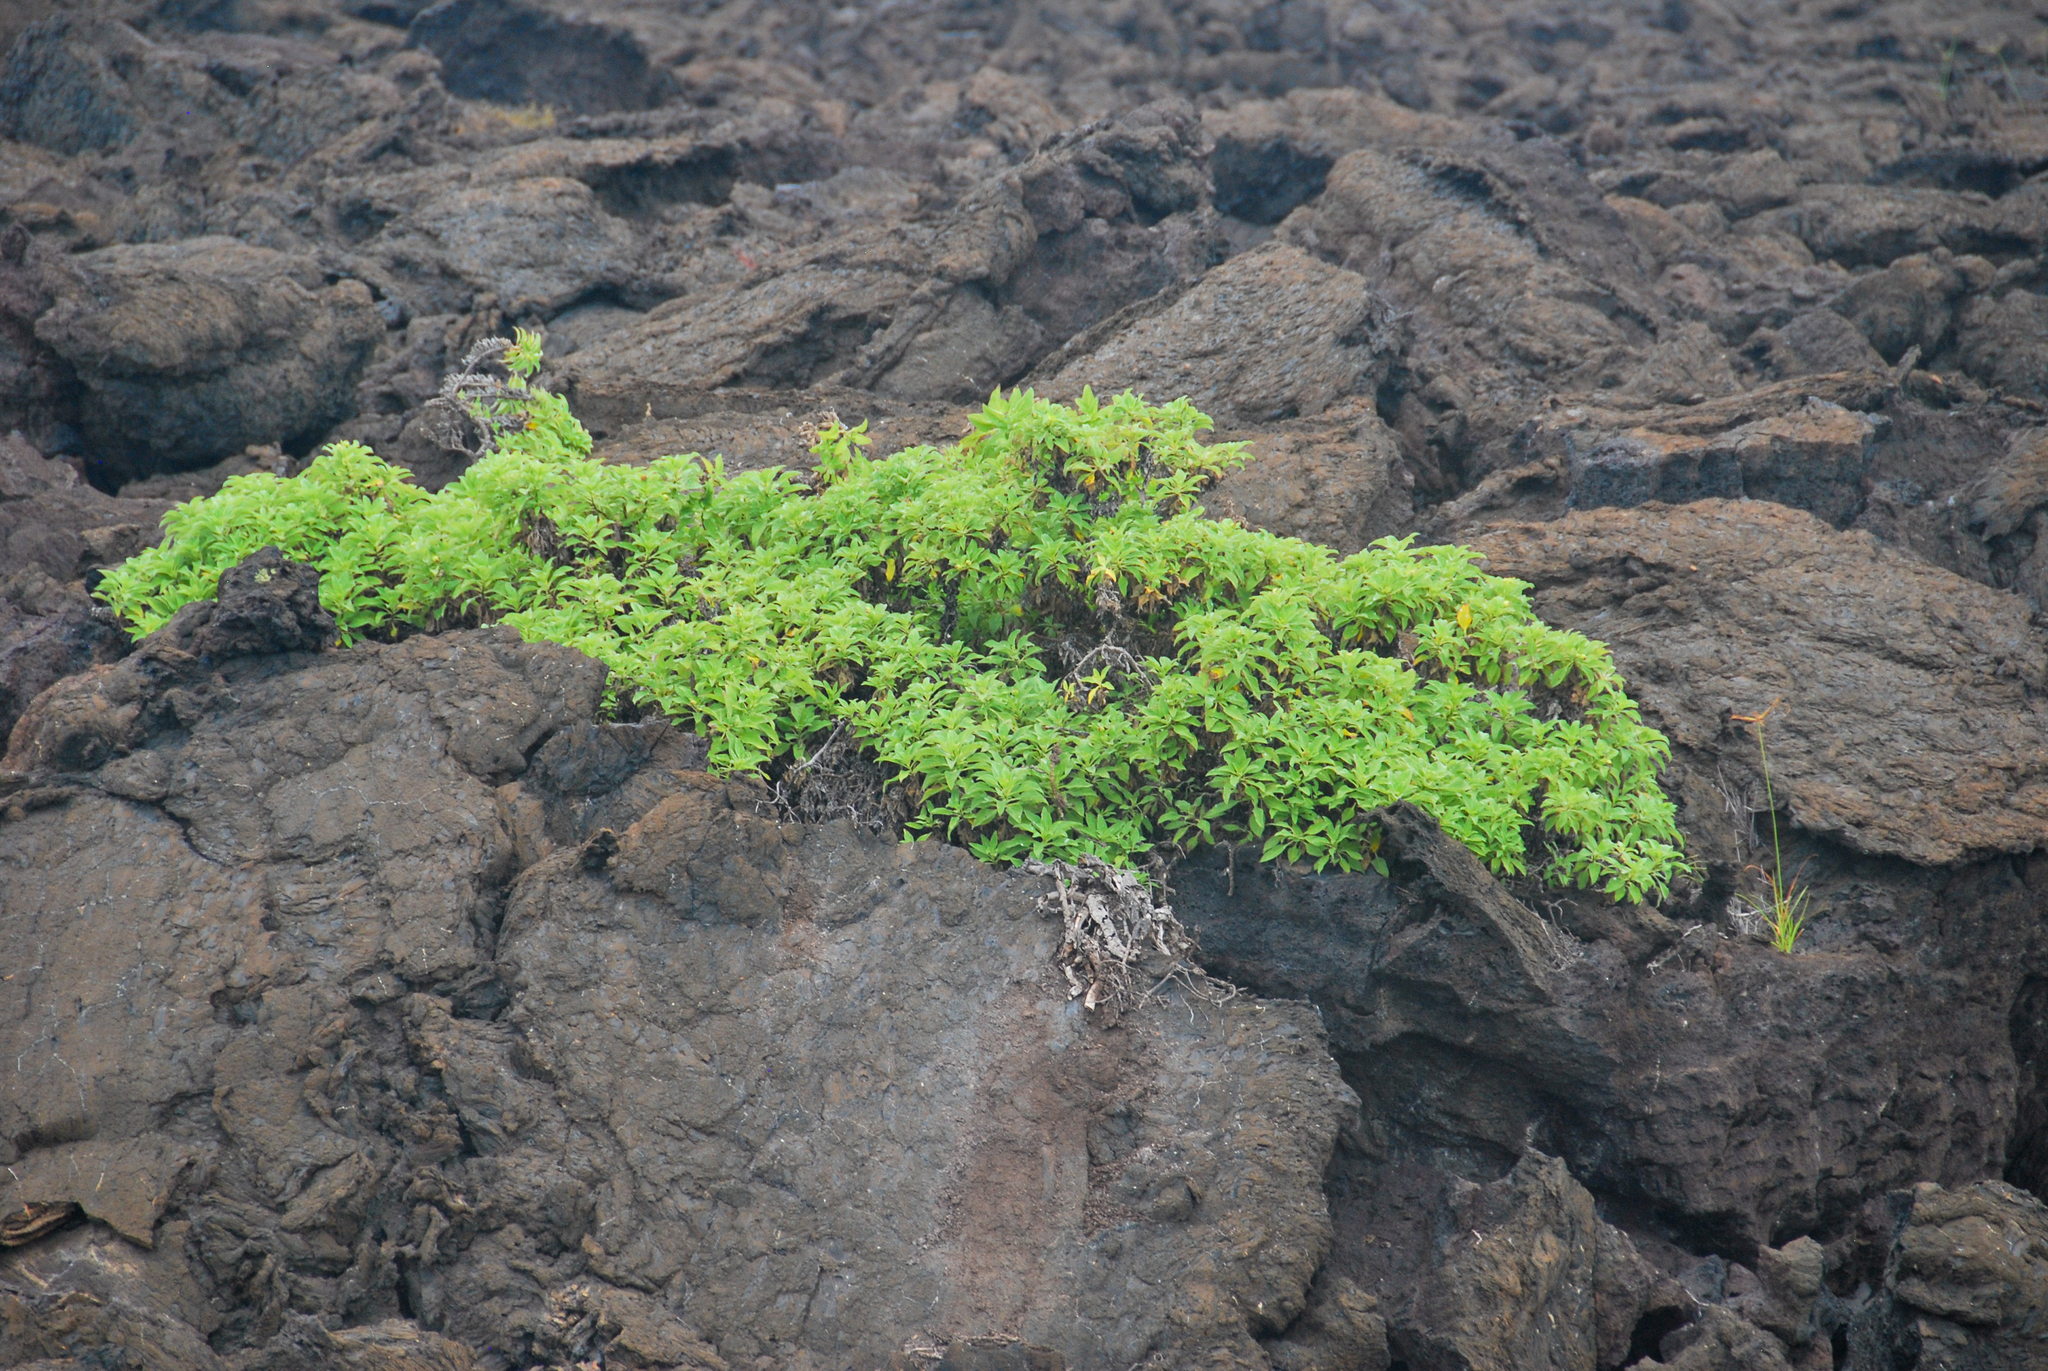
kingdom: Plantae
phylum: Tracheophyta
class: Magnoliopsida
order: Asterales
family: Asteraceae
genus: Scalesia
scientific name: Scalesia affinis
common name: Radiate-headed scalesia
